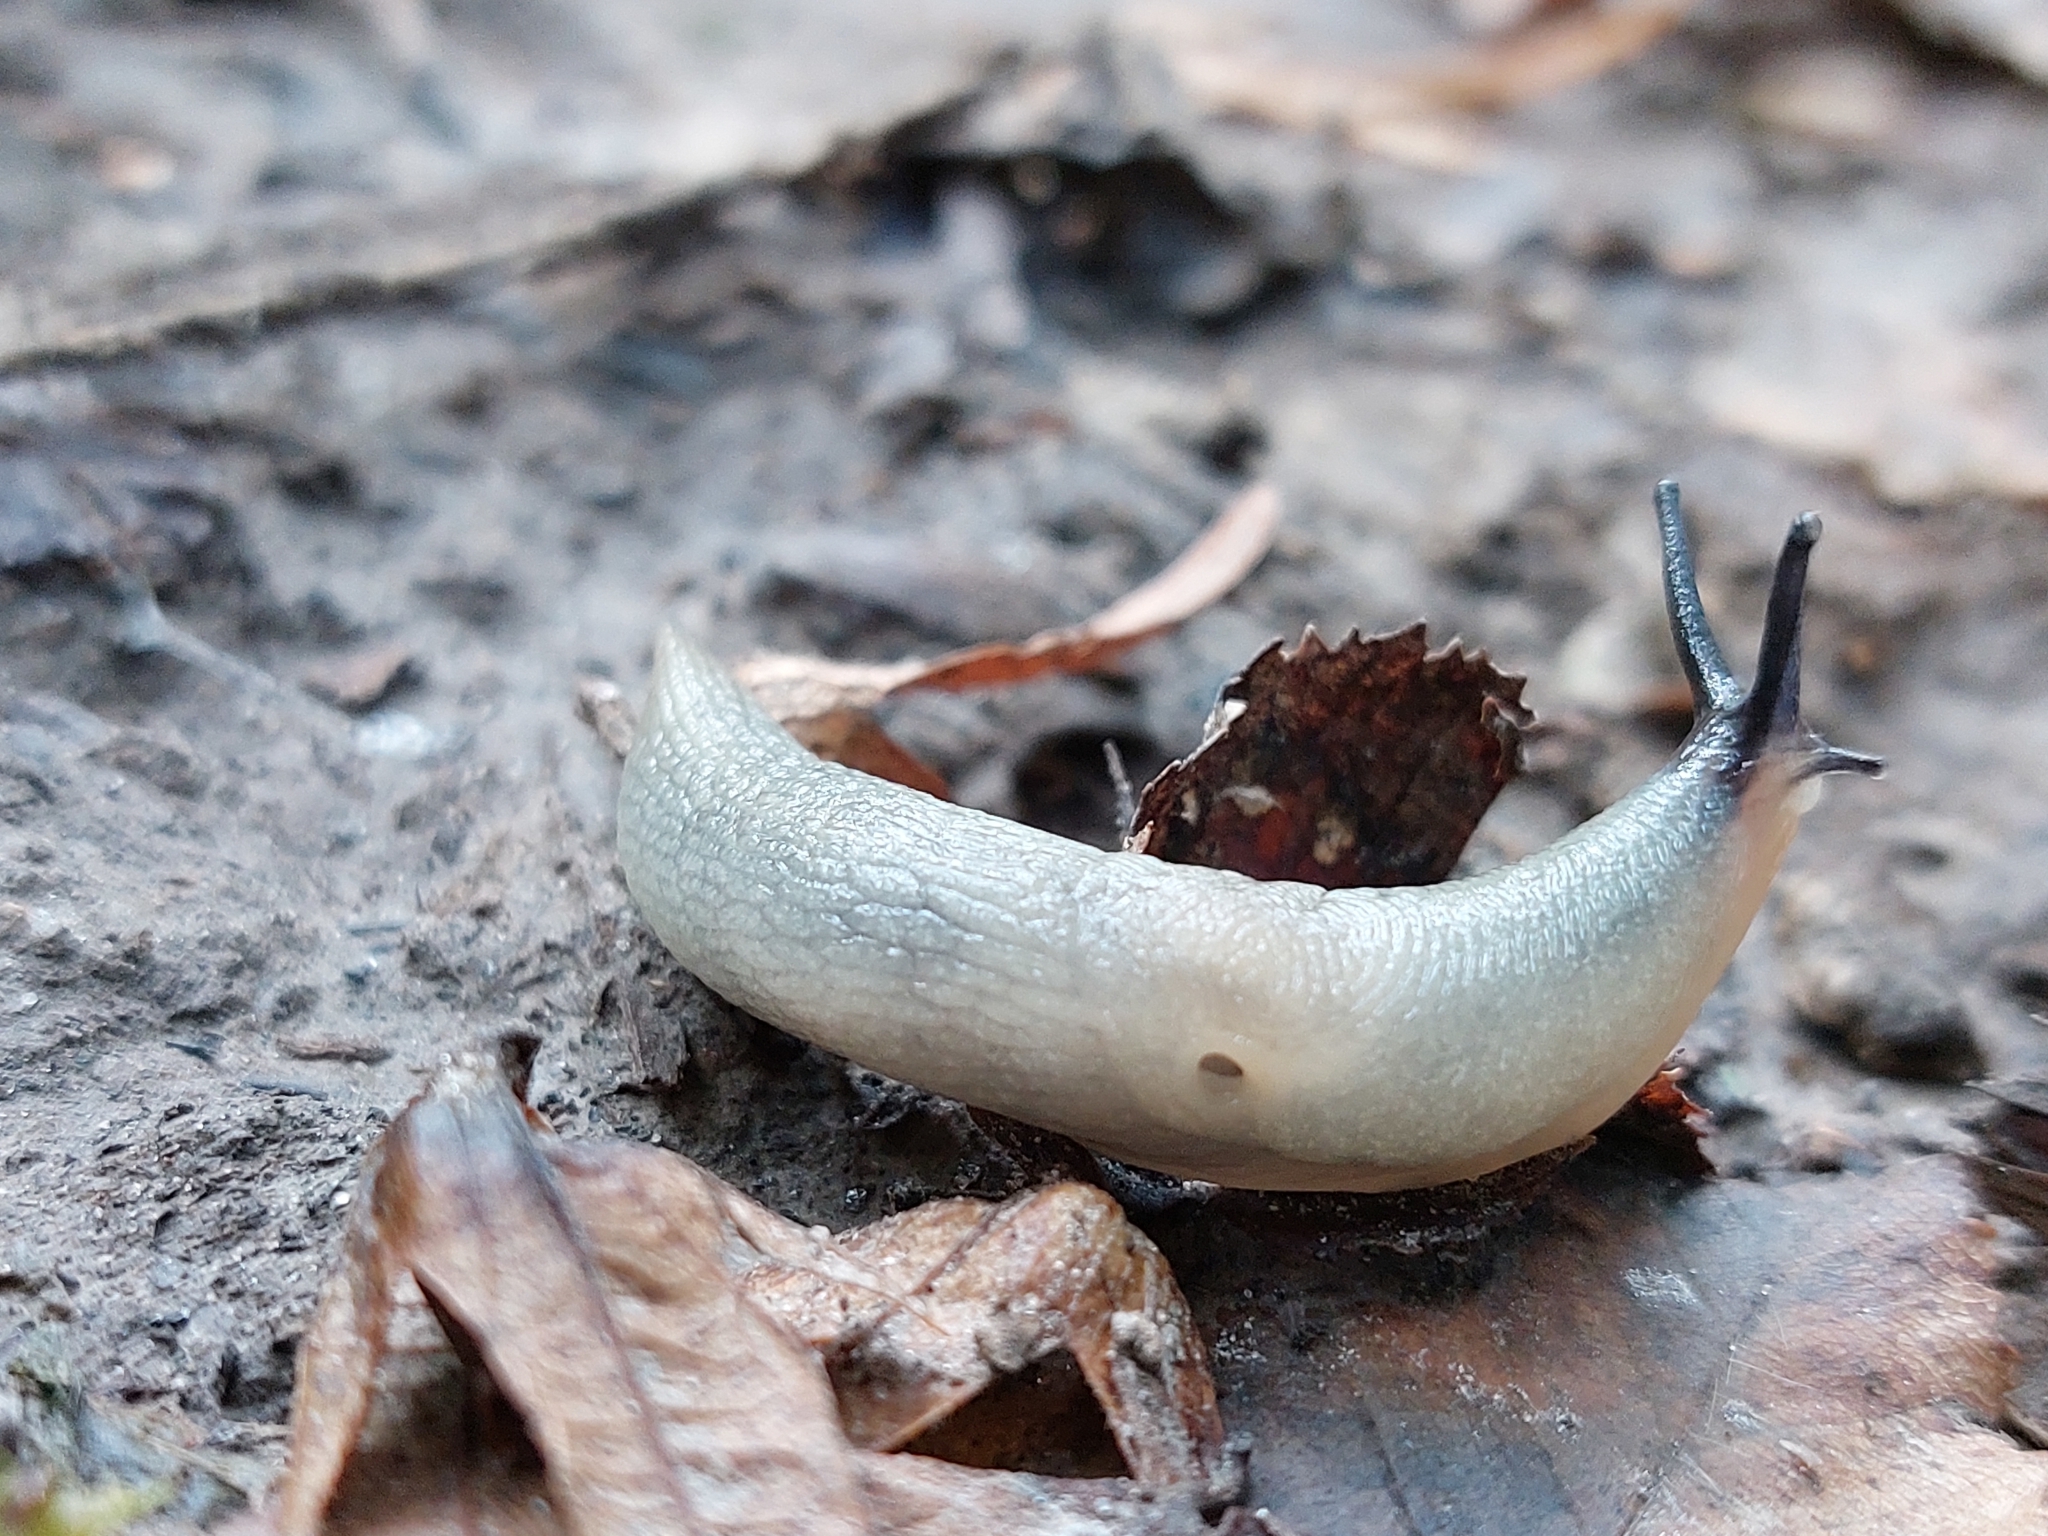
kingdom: Animalia
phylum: Mollusca
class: Gastropoda
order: Stylommatophora
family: Agriolimacidae
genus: Krynickillus
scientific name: Krynickillus melanocephalus
